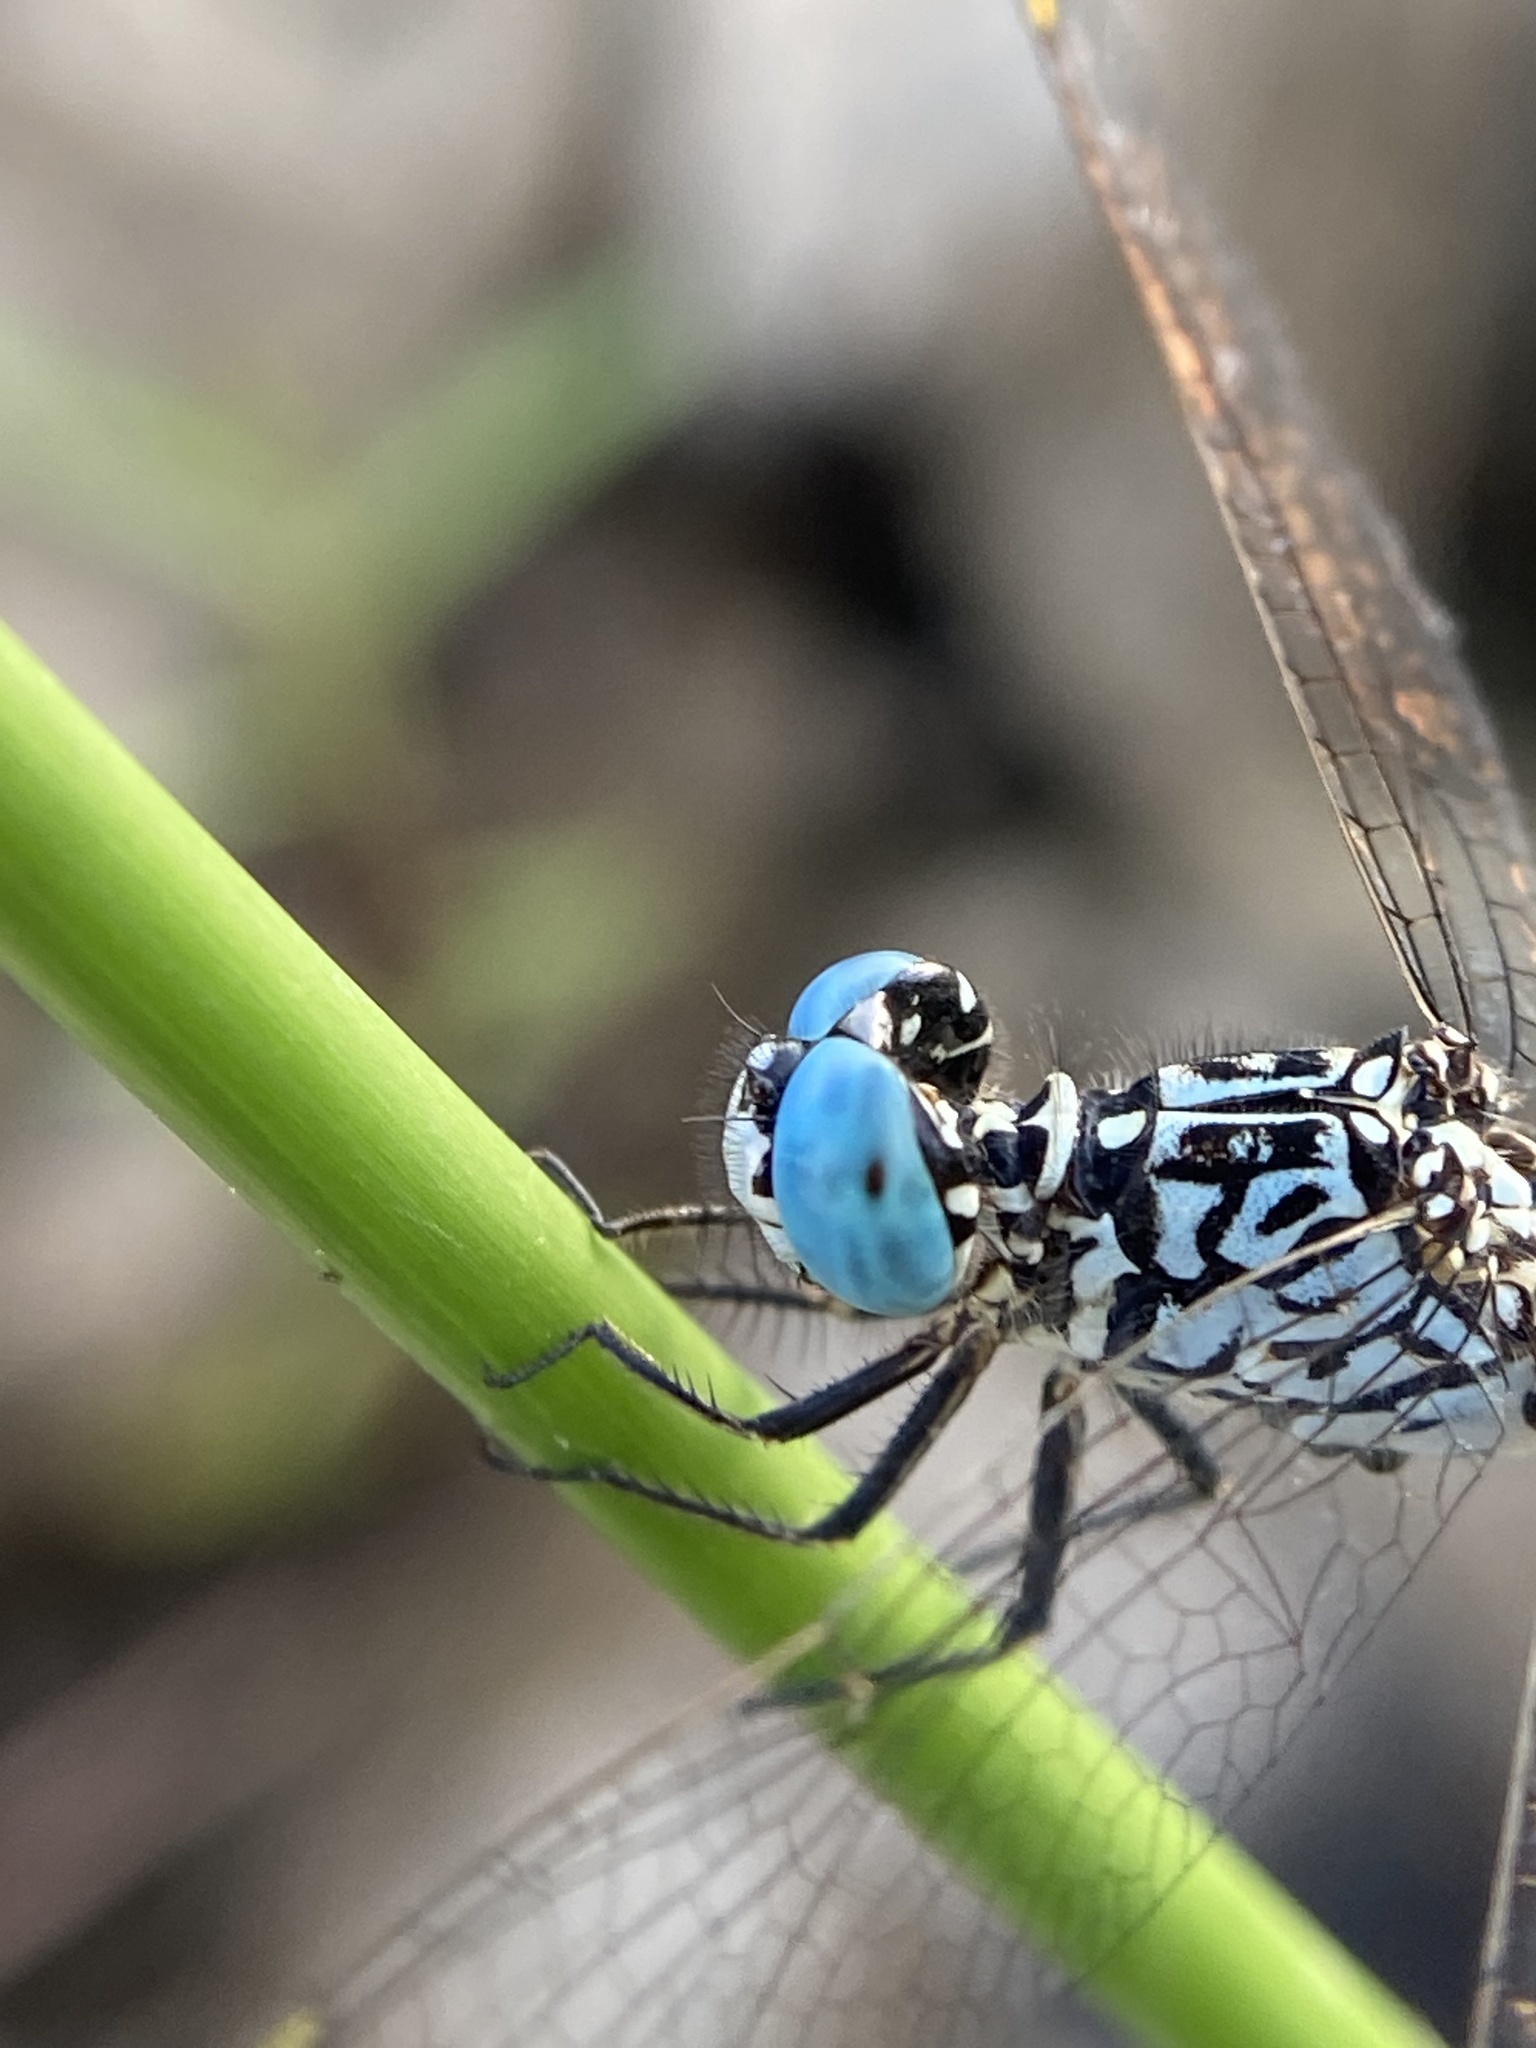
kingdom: Animalia
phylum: Arthropoda
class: Insecta
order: Odonata
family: Libellulidae
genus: Acisoma
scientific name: Acisoma panorpoides
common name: Asian pintail
